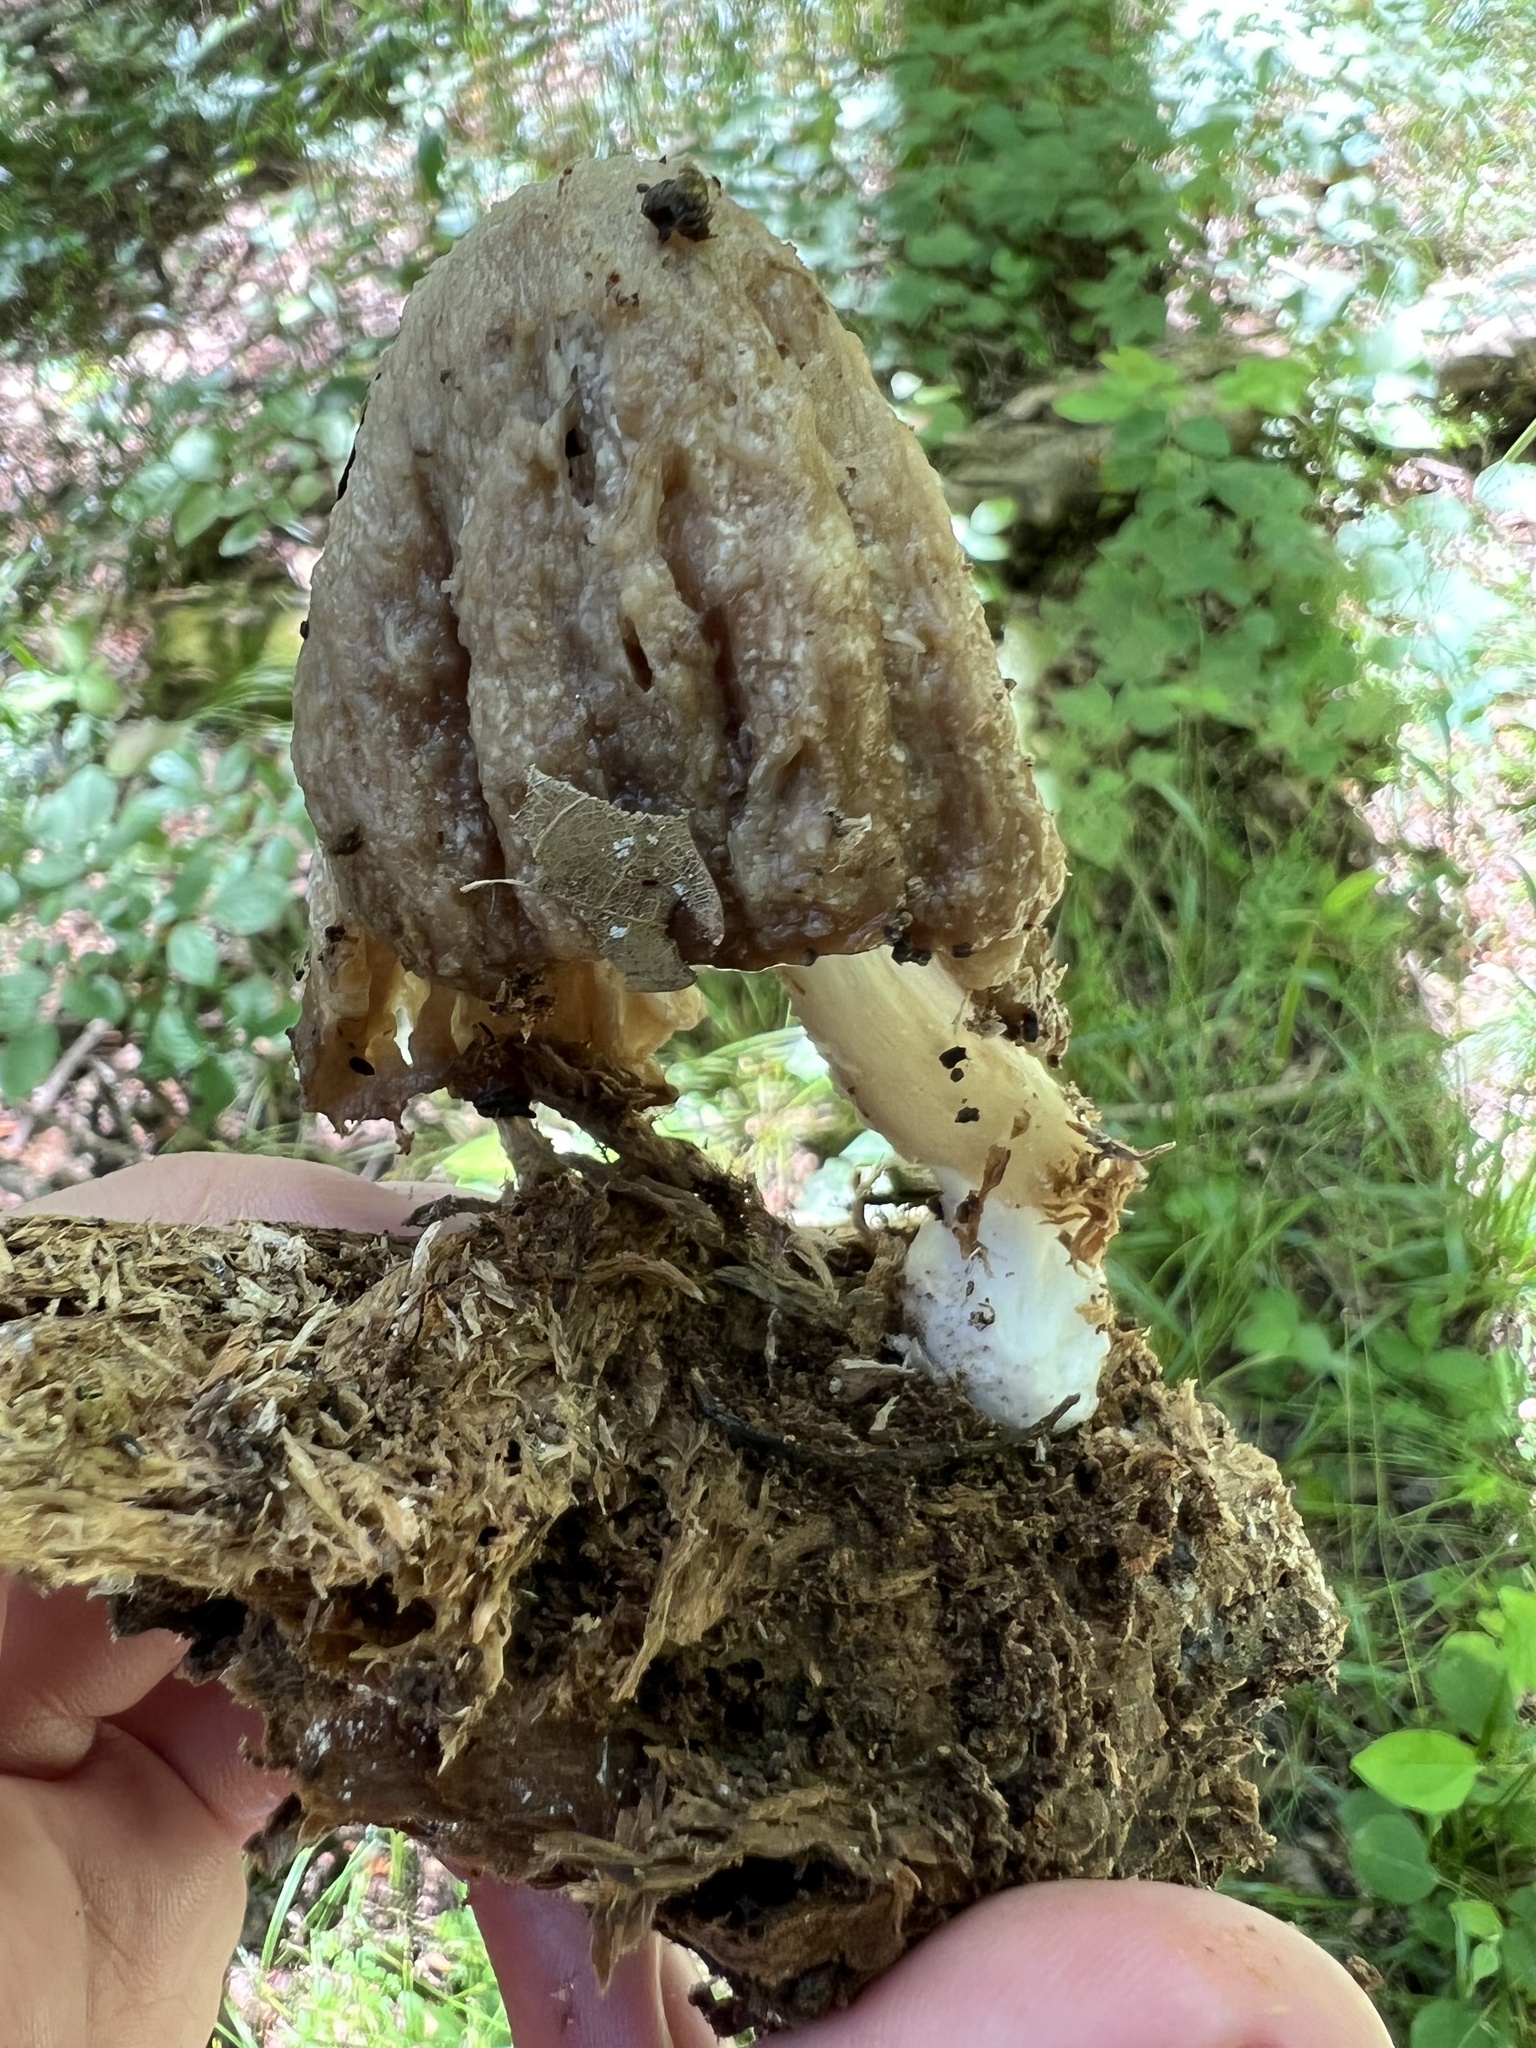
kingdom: Fungi
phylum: Basidiomycota
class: Agaricomycetes
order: Agaricales
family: Tricholomataceae
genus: Megacollybia
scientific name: Megacollybia rodmanii
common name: Eastern american platterful mushroom
